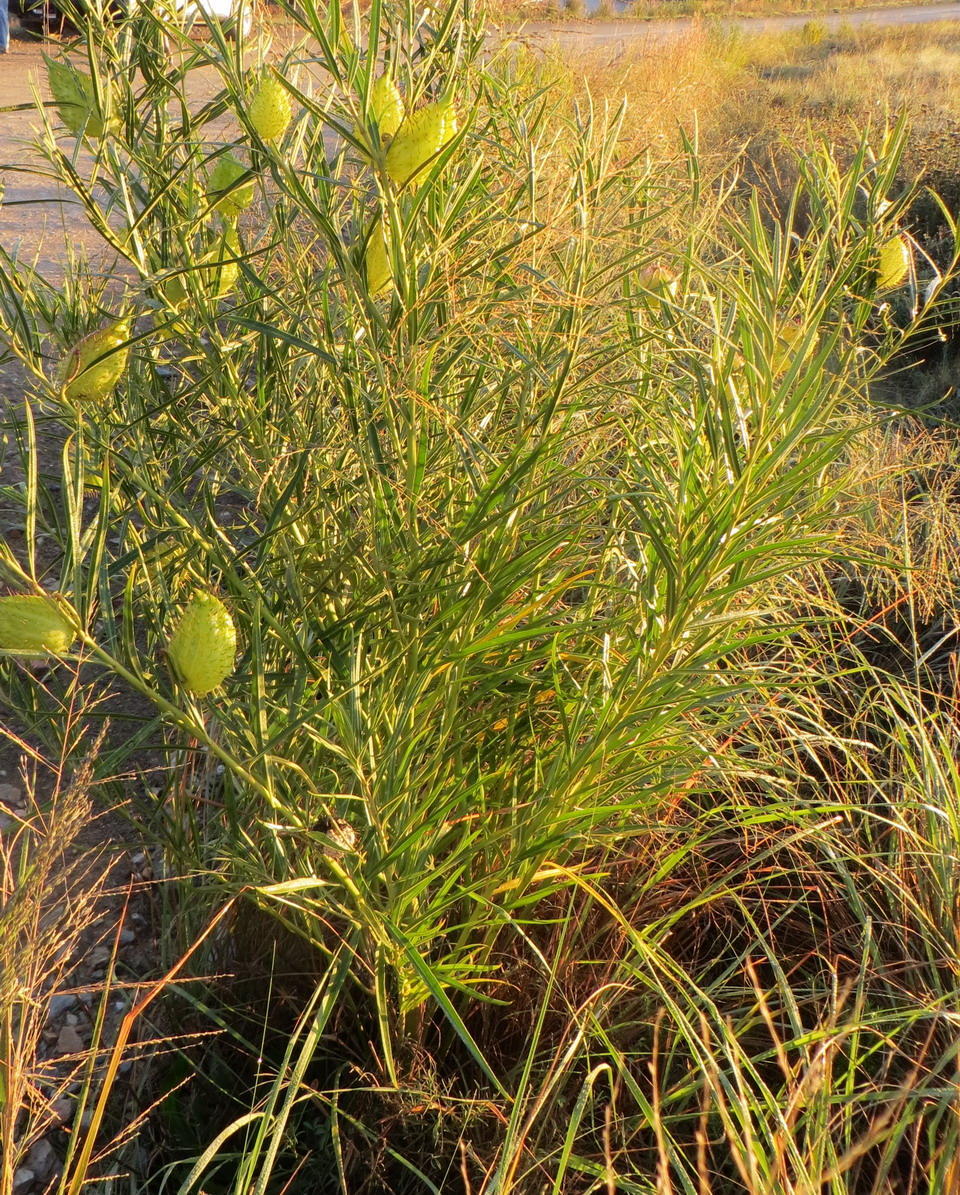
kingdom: Plantae
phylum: Tracheophyta
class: Magnoliopsida
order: Gentianales
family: Apocynaceae
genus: Gomphocarpus
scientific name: Gomphocarpus fruticosus
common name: Milkweed
